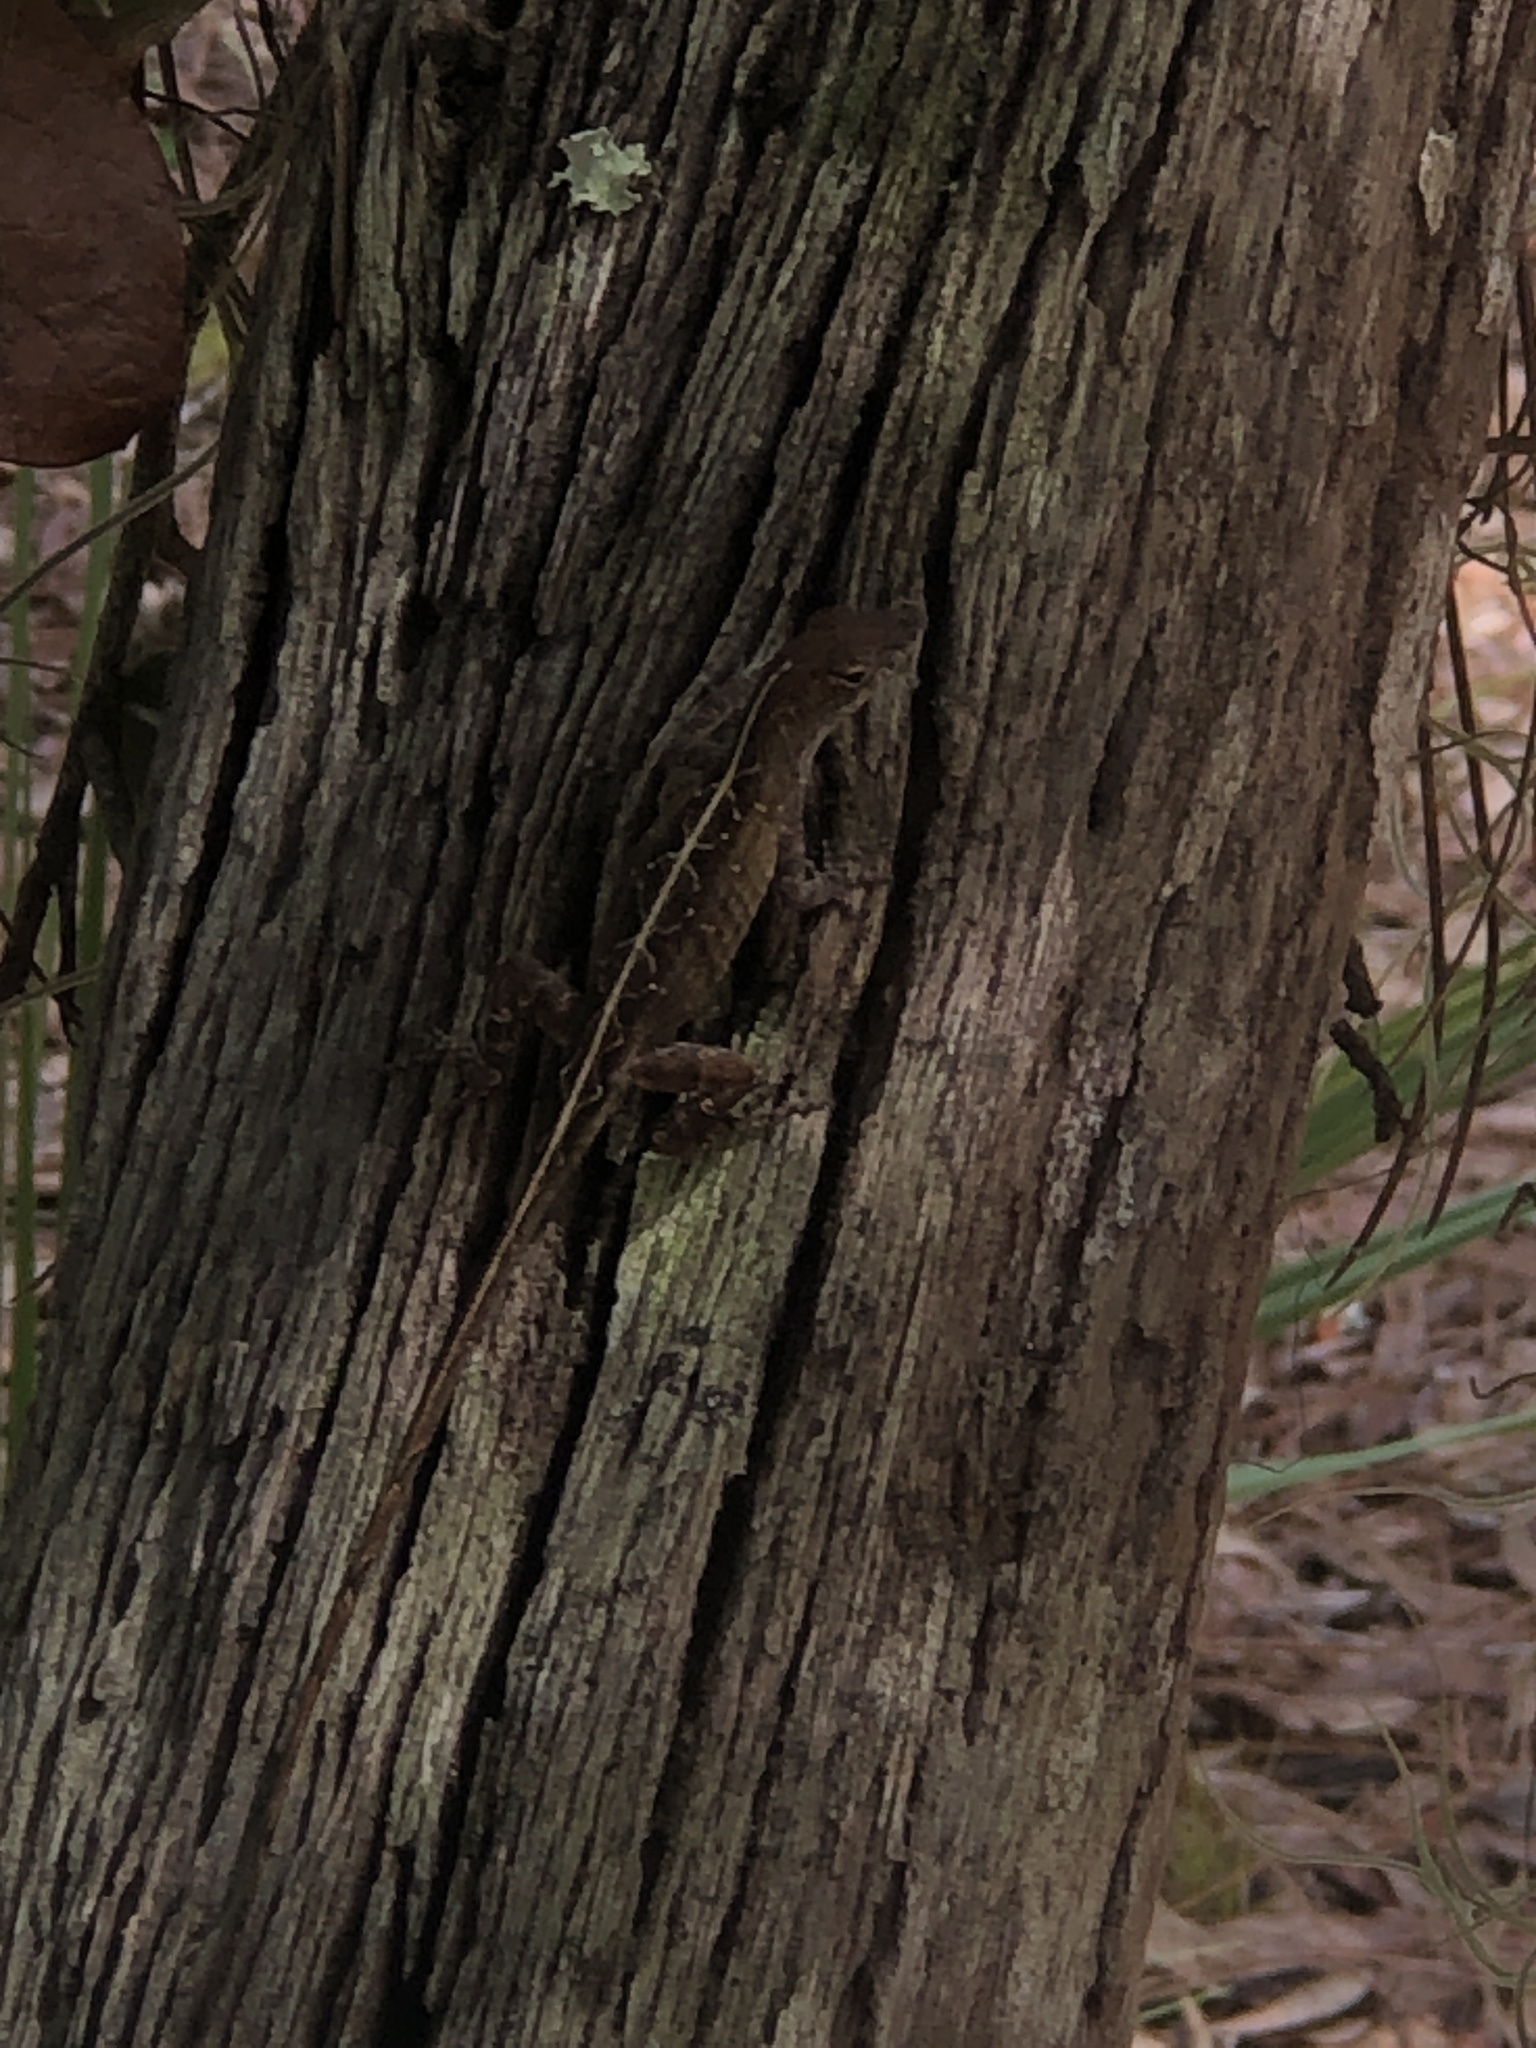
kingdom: Animalia
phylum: Chordata
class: Squamata
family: Dactyloidae
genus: Anolis
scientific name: Anolis sagrei
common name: Brown anole
